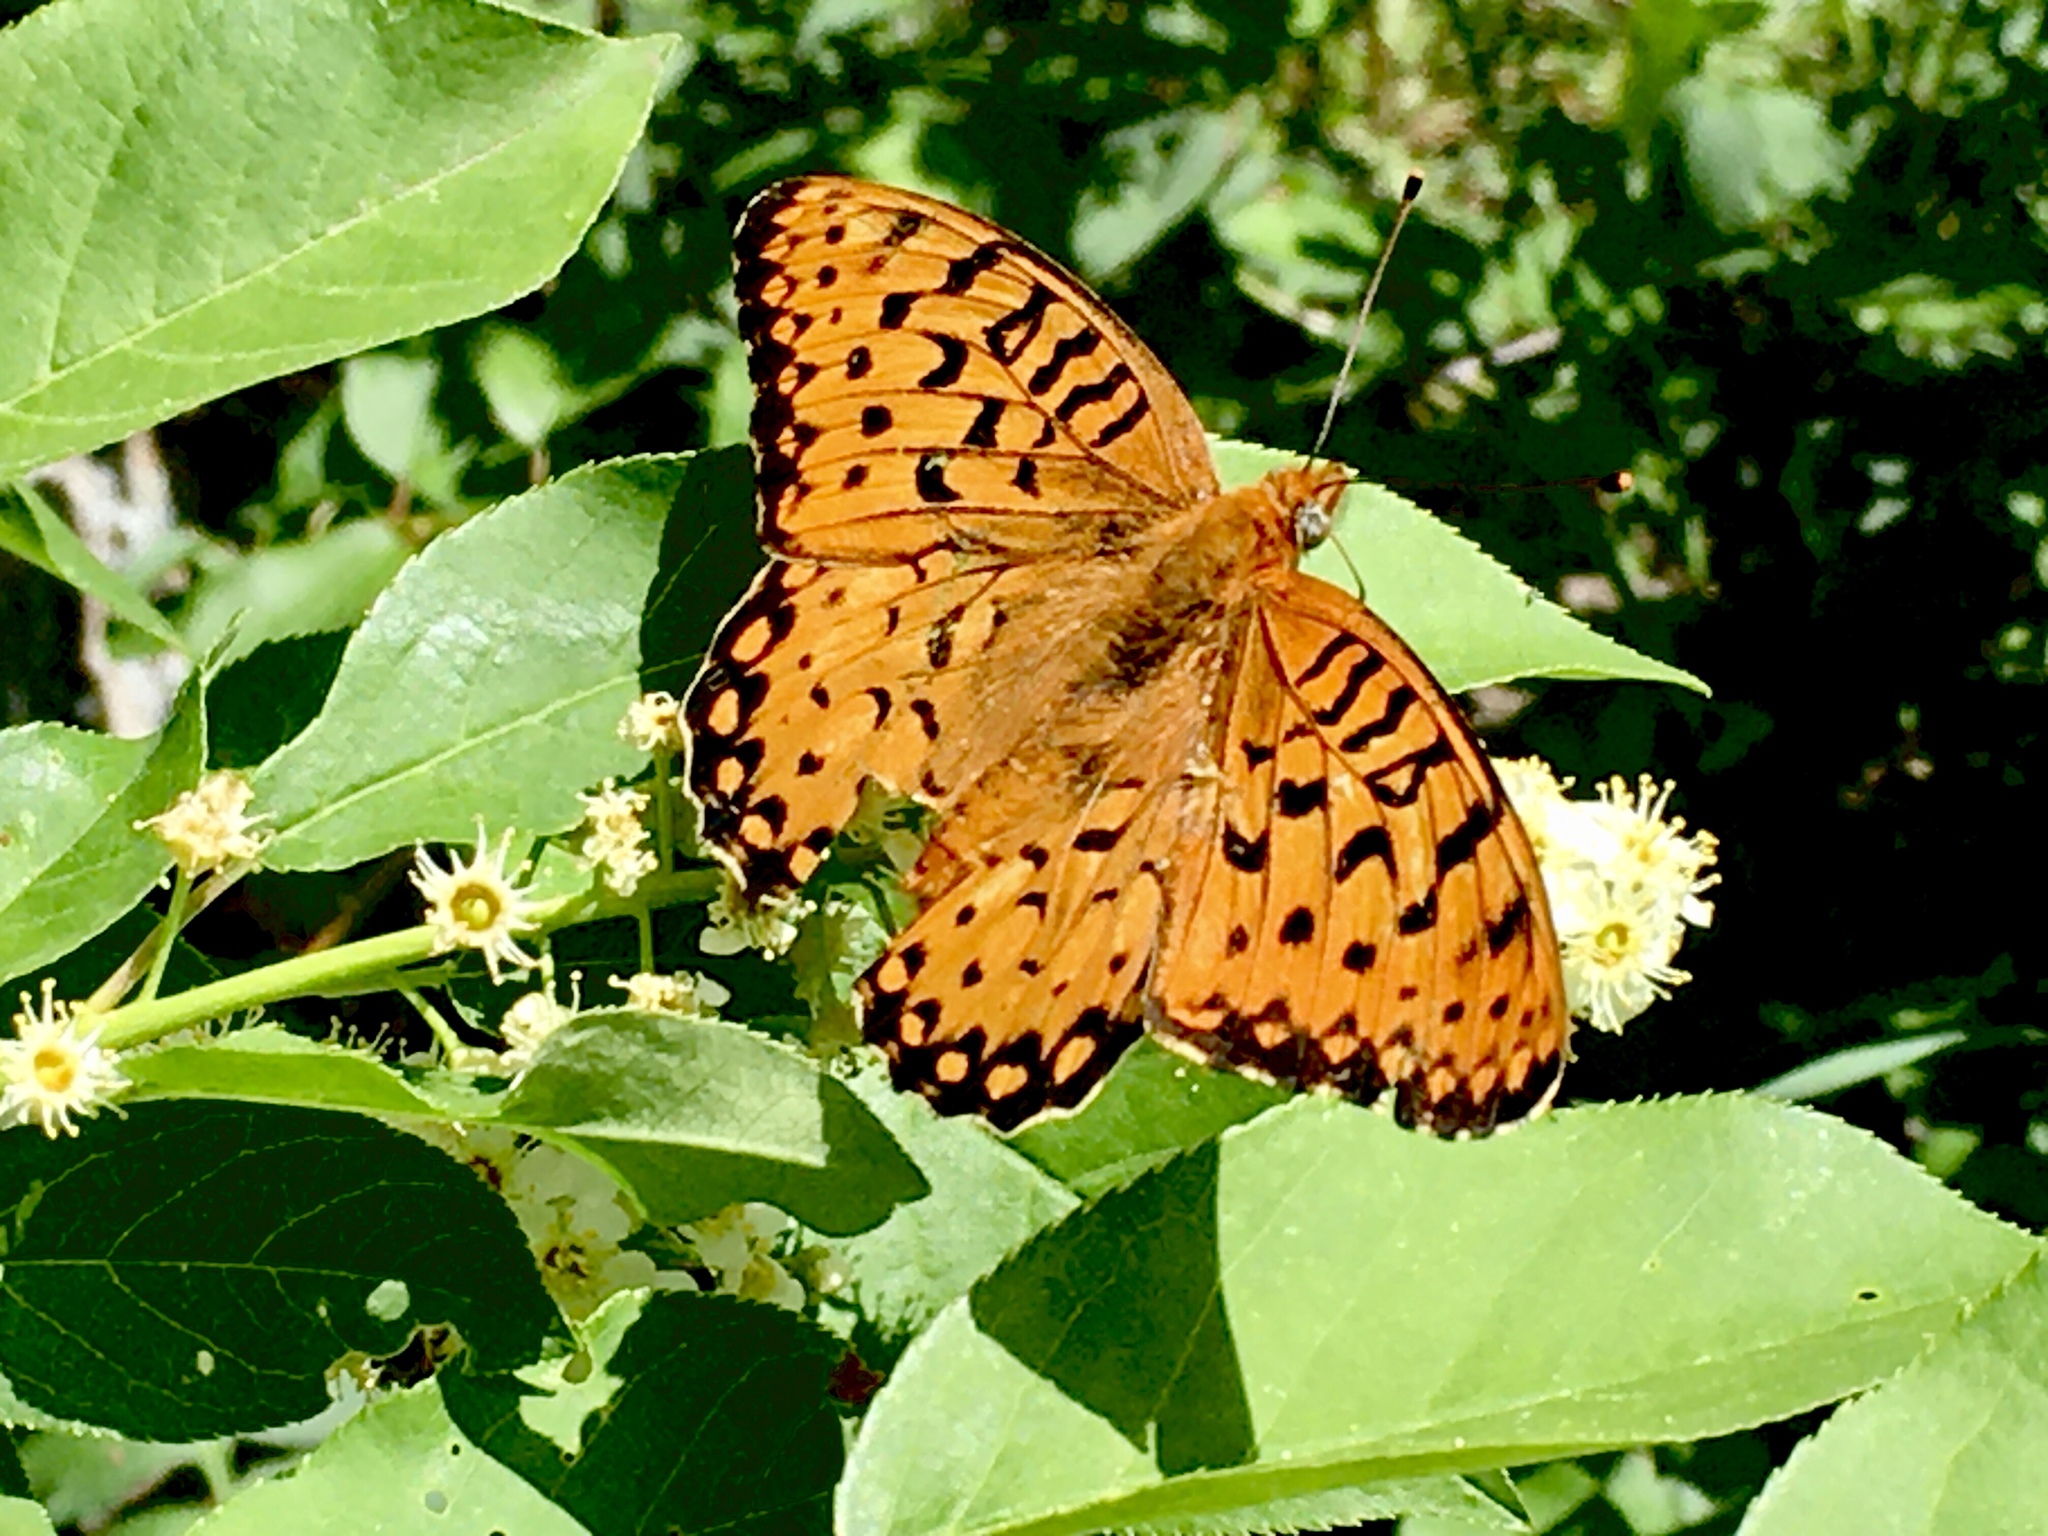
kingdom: Animalia
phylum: Arthropoda
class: Insecta
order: Lepidoptera
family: Nymphalidae
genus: Speyeria
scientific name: Speyeria edwardsii
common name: Edwards' fritillary
